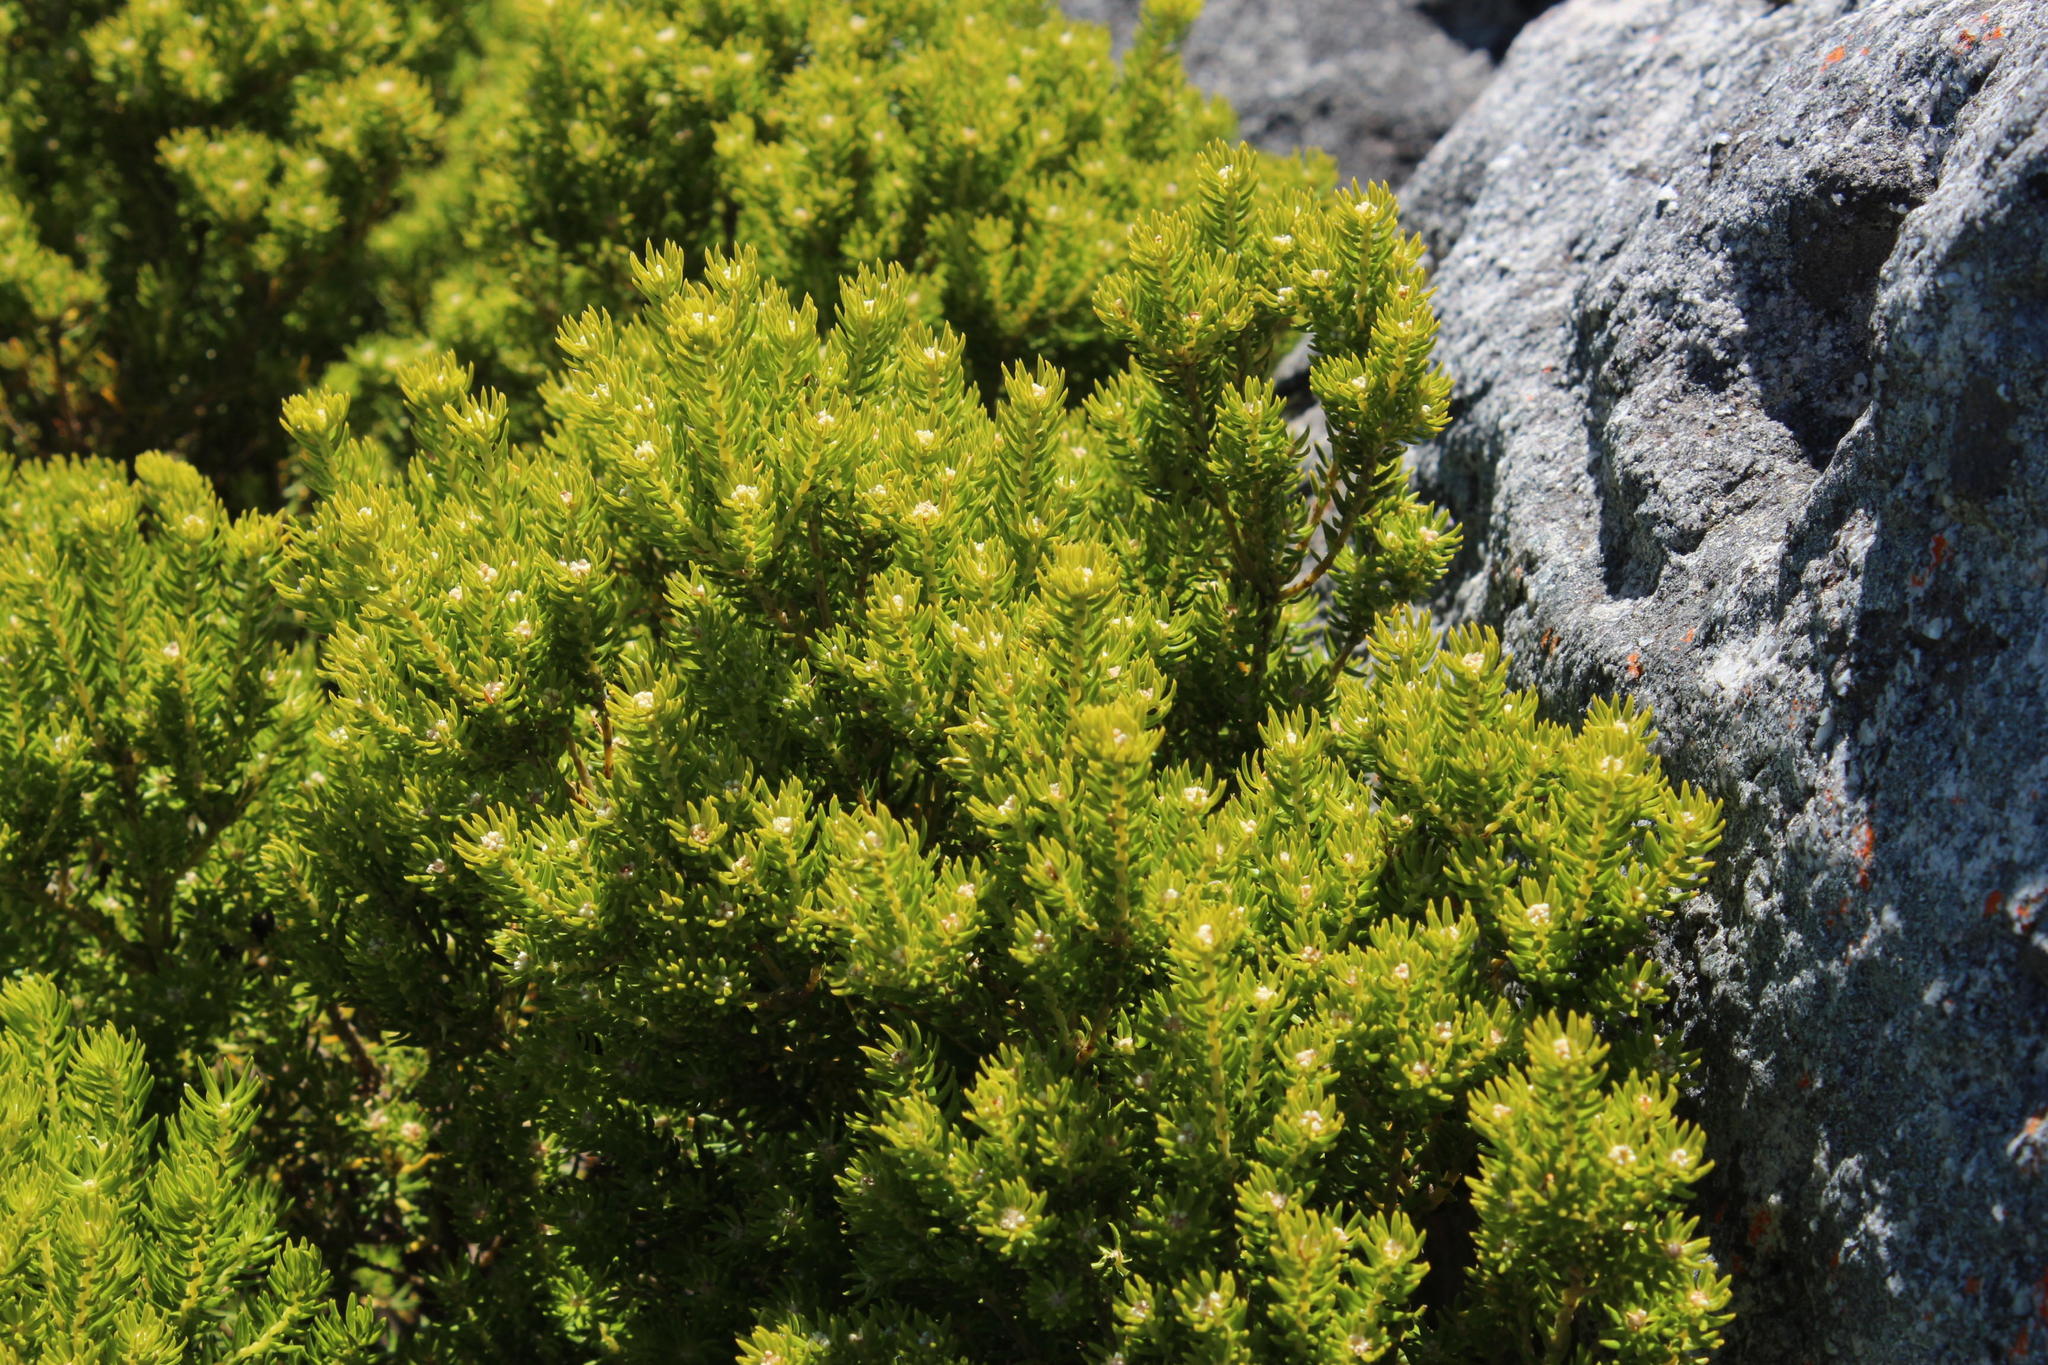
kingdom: Plantae
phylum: Tracheophyta
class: Magnoliopsida
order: Rosales
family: Rhamnaceae
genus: Phylica
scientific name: Phylica minutiflora
